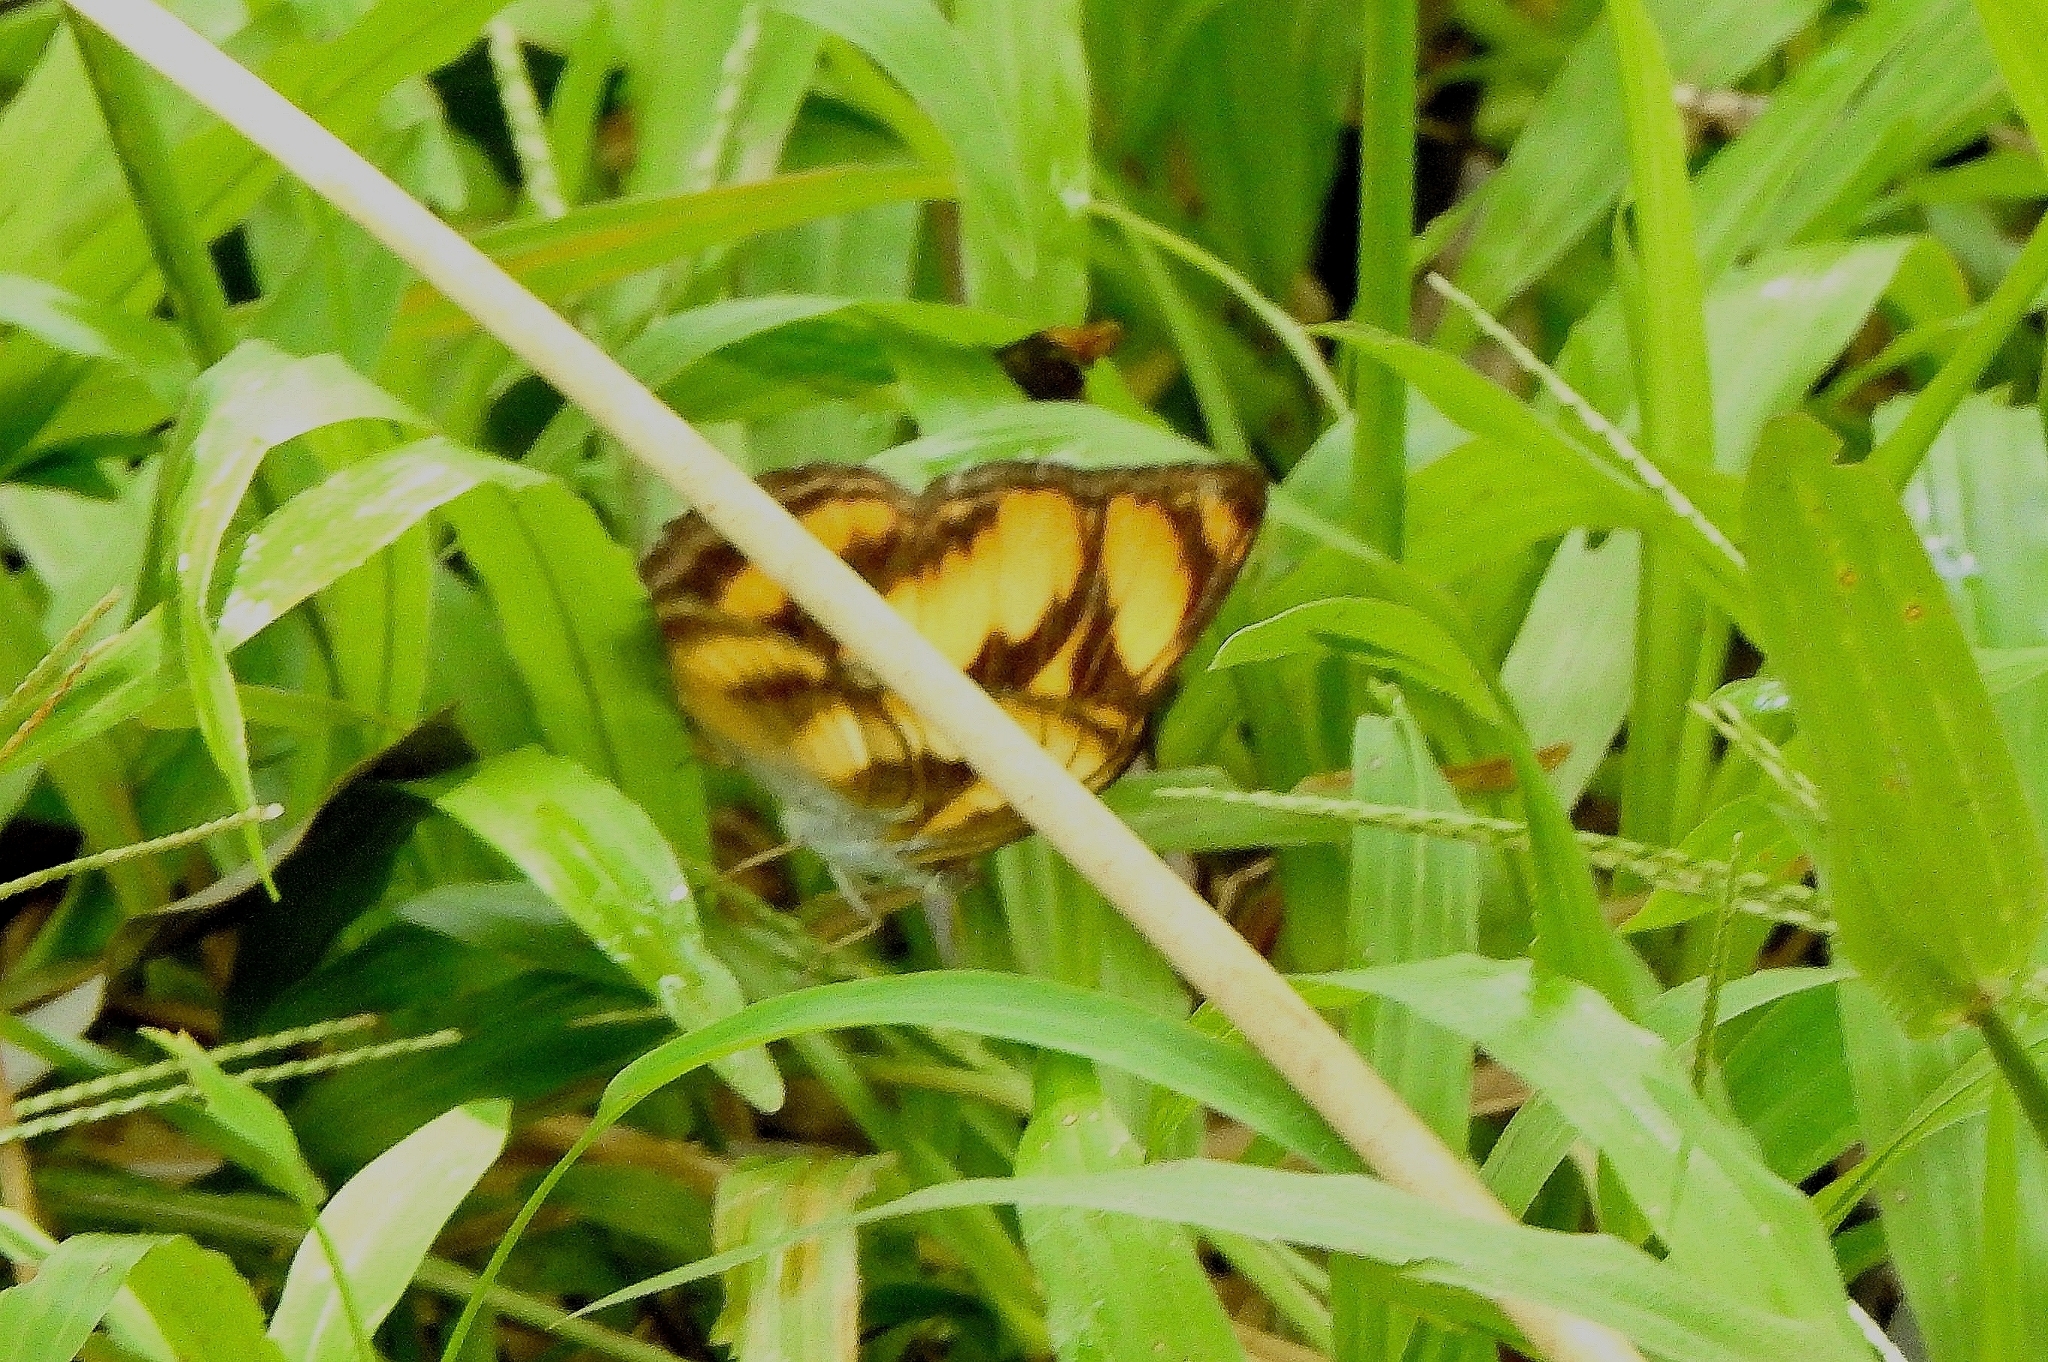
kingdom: Animalia
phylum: Arthropoda
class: Insecta
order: Lepidoptera
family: Nymphalidae
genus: Parathyma
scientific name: Parathyma nefte
